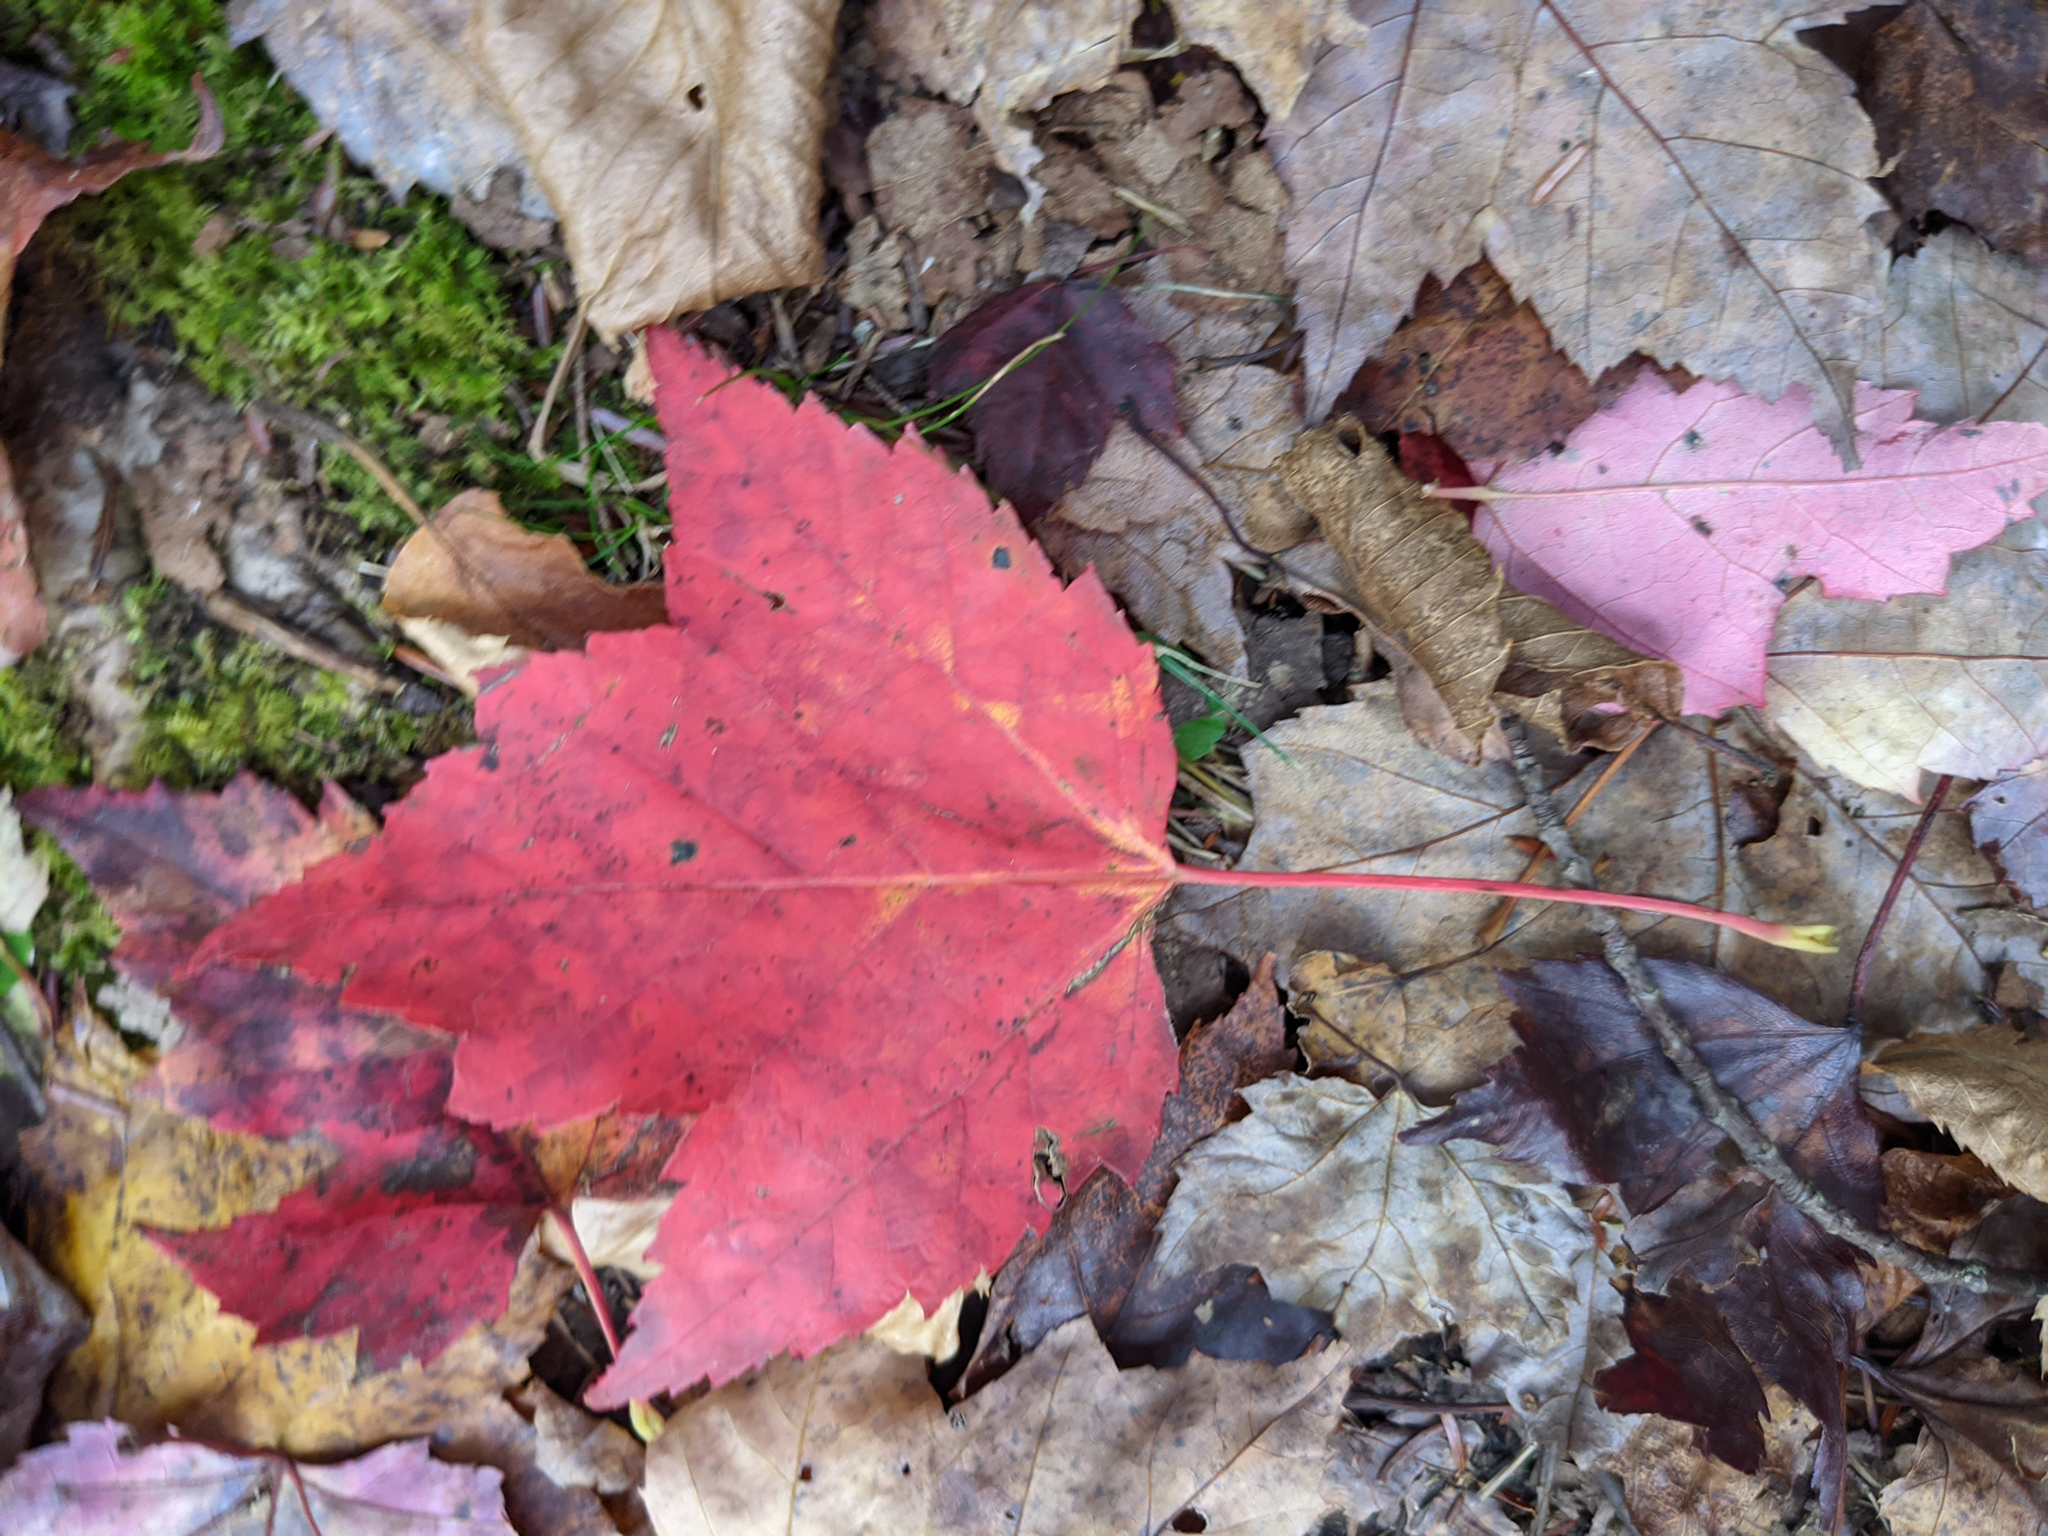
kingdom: Plantae
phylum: Tracheophyta
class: Magnoliopsida
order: Sapindales
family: Sapindaceae
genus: Acer
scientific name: Acer rubrum
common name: Red maple
